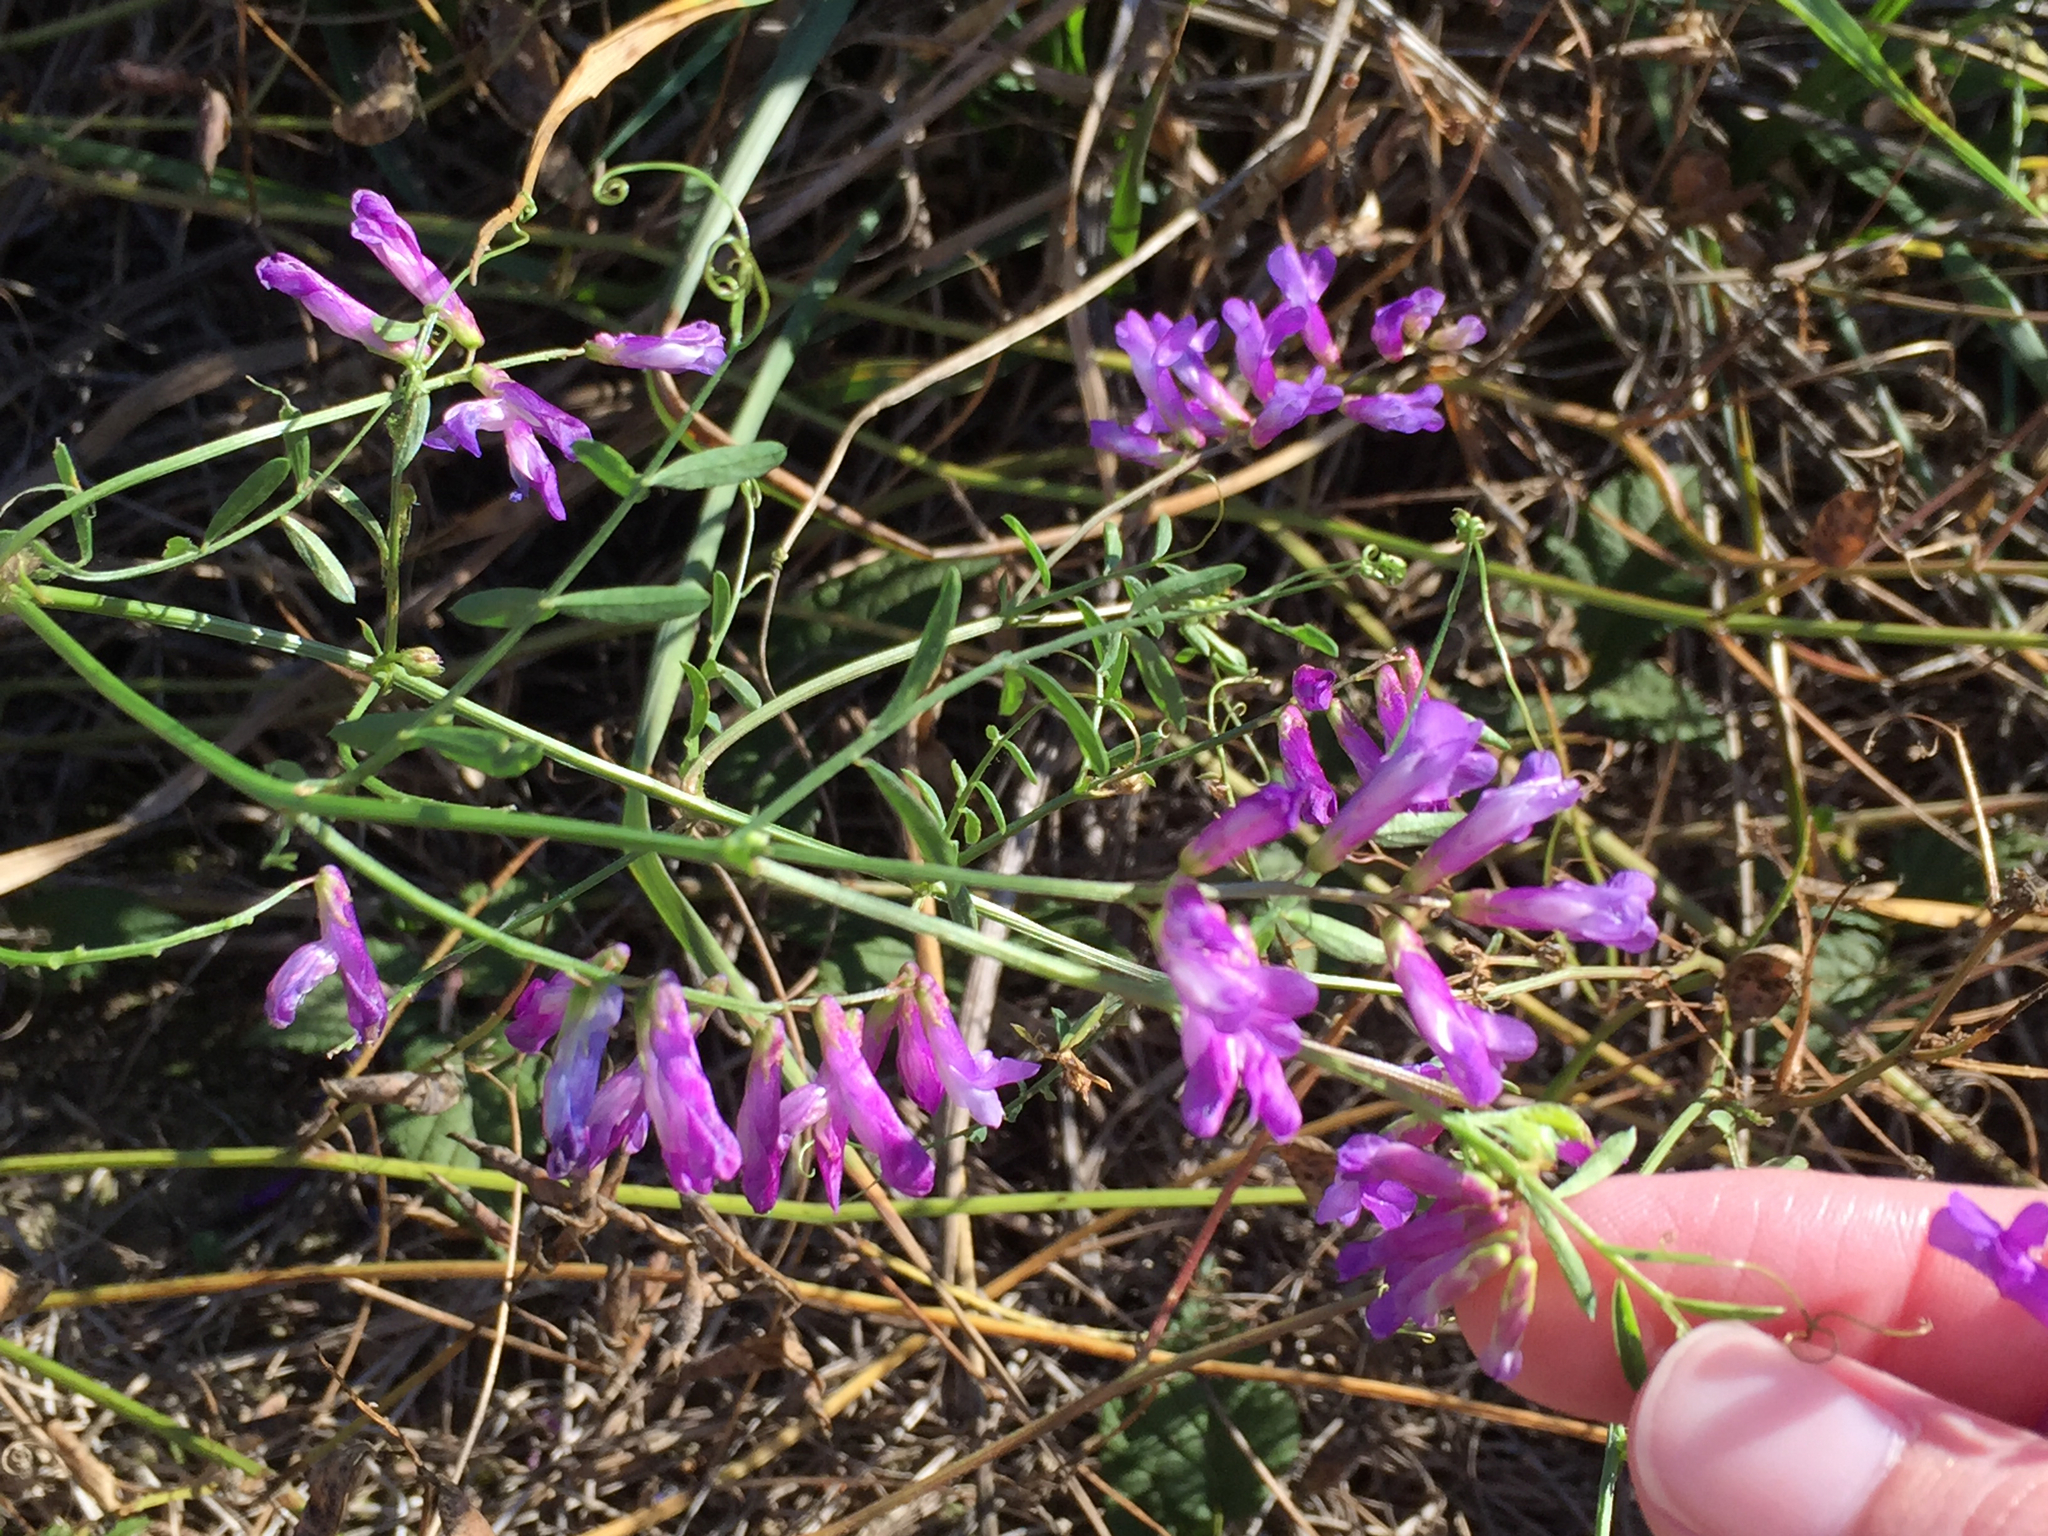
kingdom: Plantae
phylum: Tracheophyta
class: Magnoliopsida
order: Fabales
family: Fabaceae
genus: Vicia
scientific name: Vicia villosa
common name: Fodder vetch
